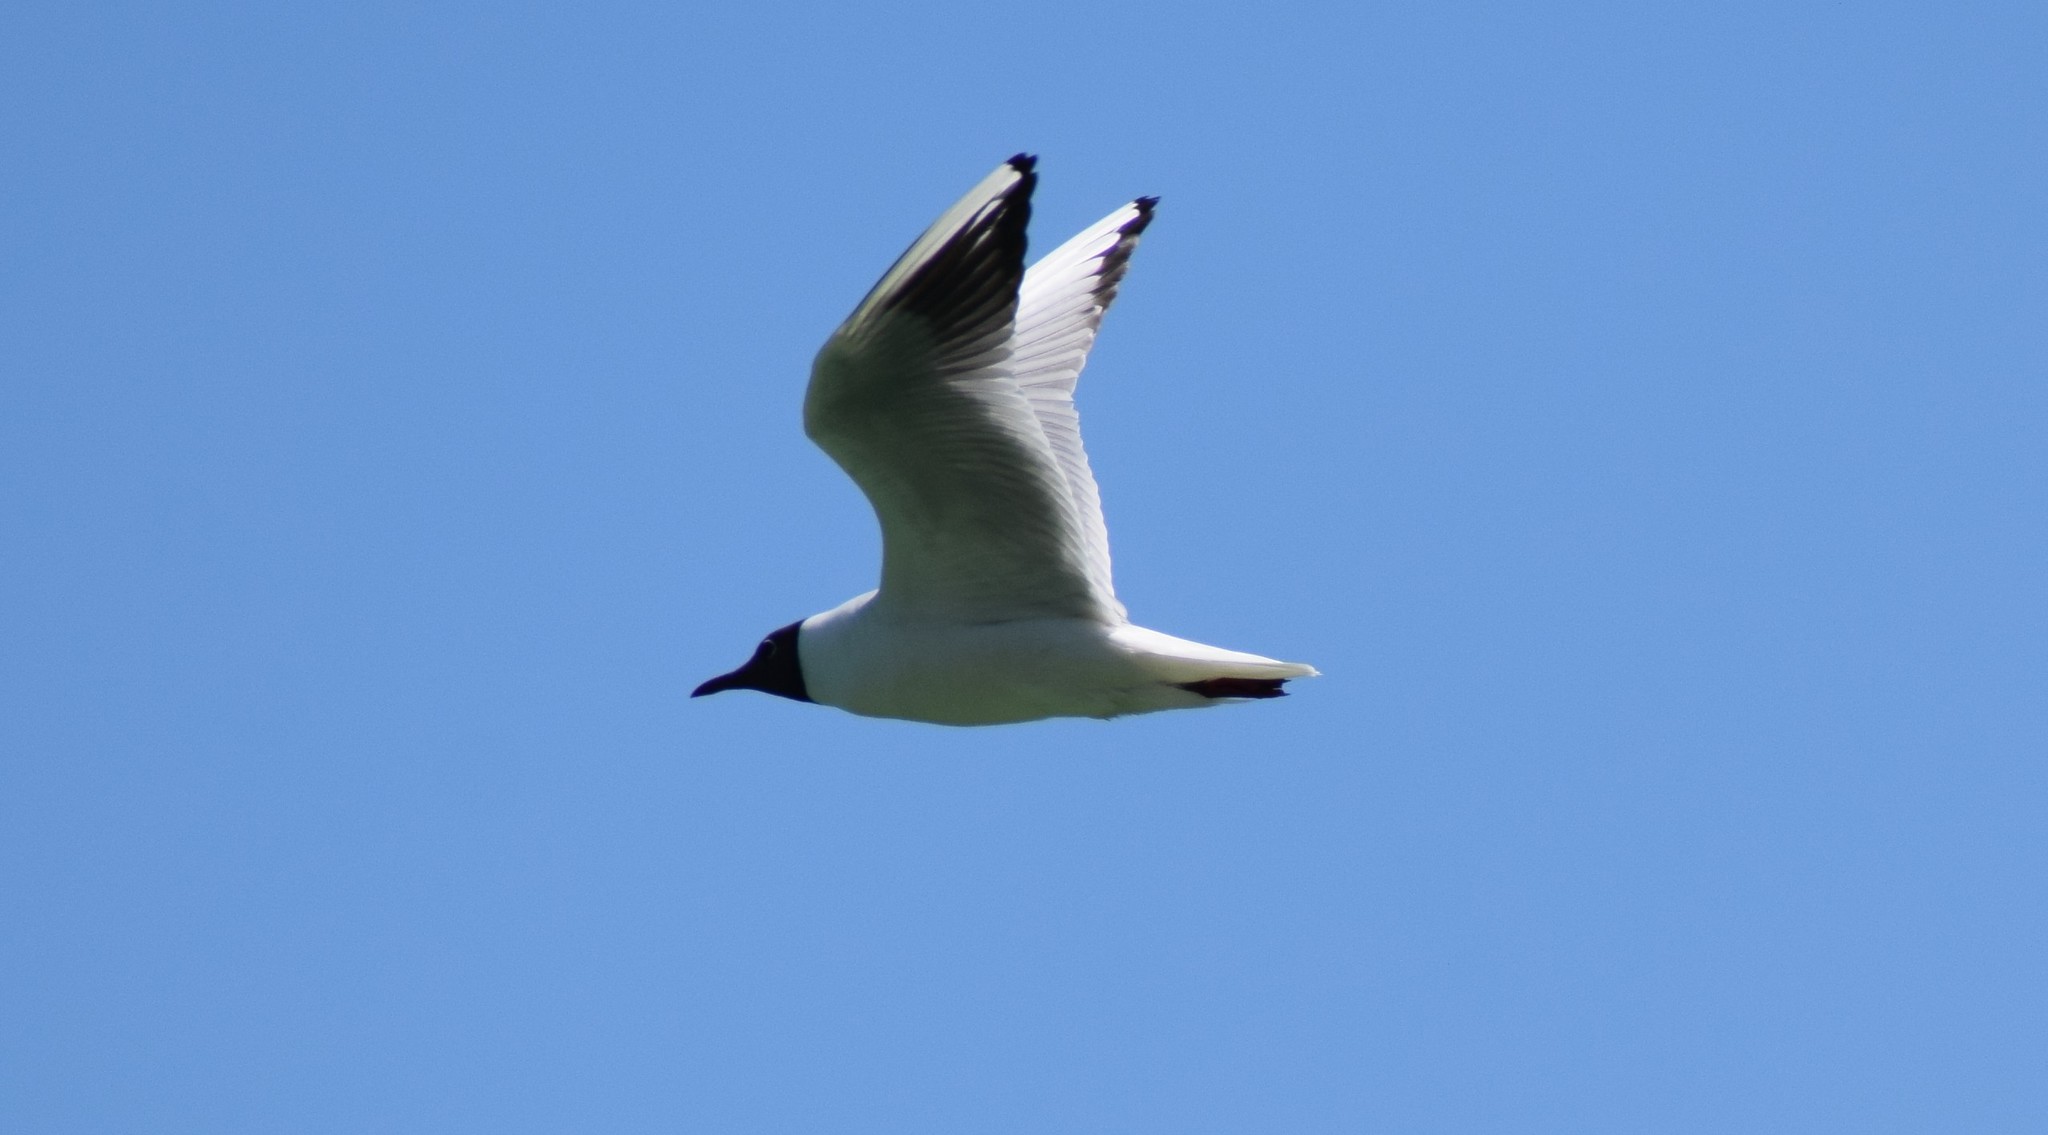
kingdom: Animalia
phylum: Chordata
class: Aves
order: Charadriiformes
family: Laridae
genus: Chroicocephalus
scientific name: Chroicocephalus ridibundus
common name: Black-headed gull
